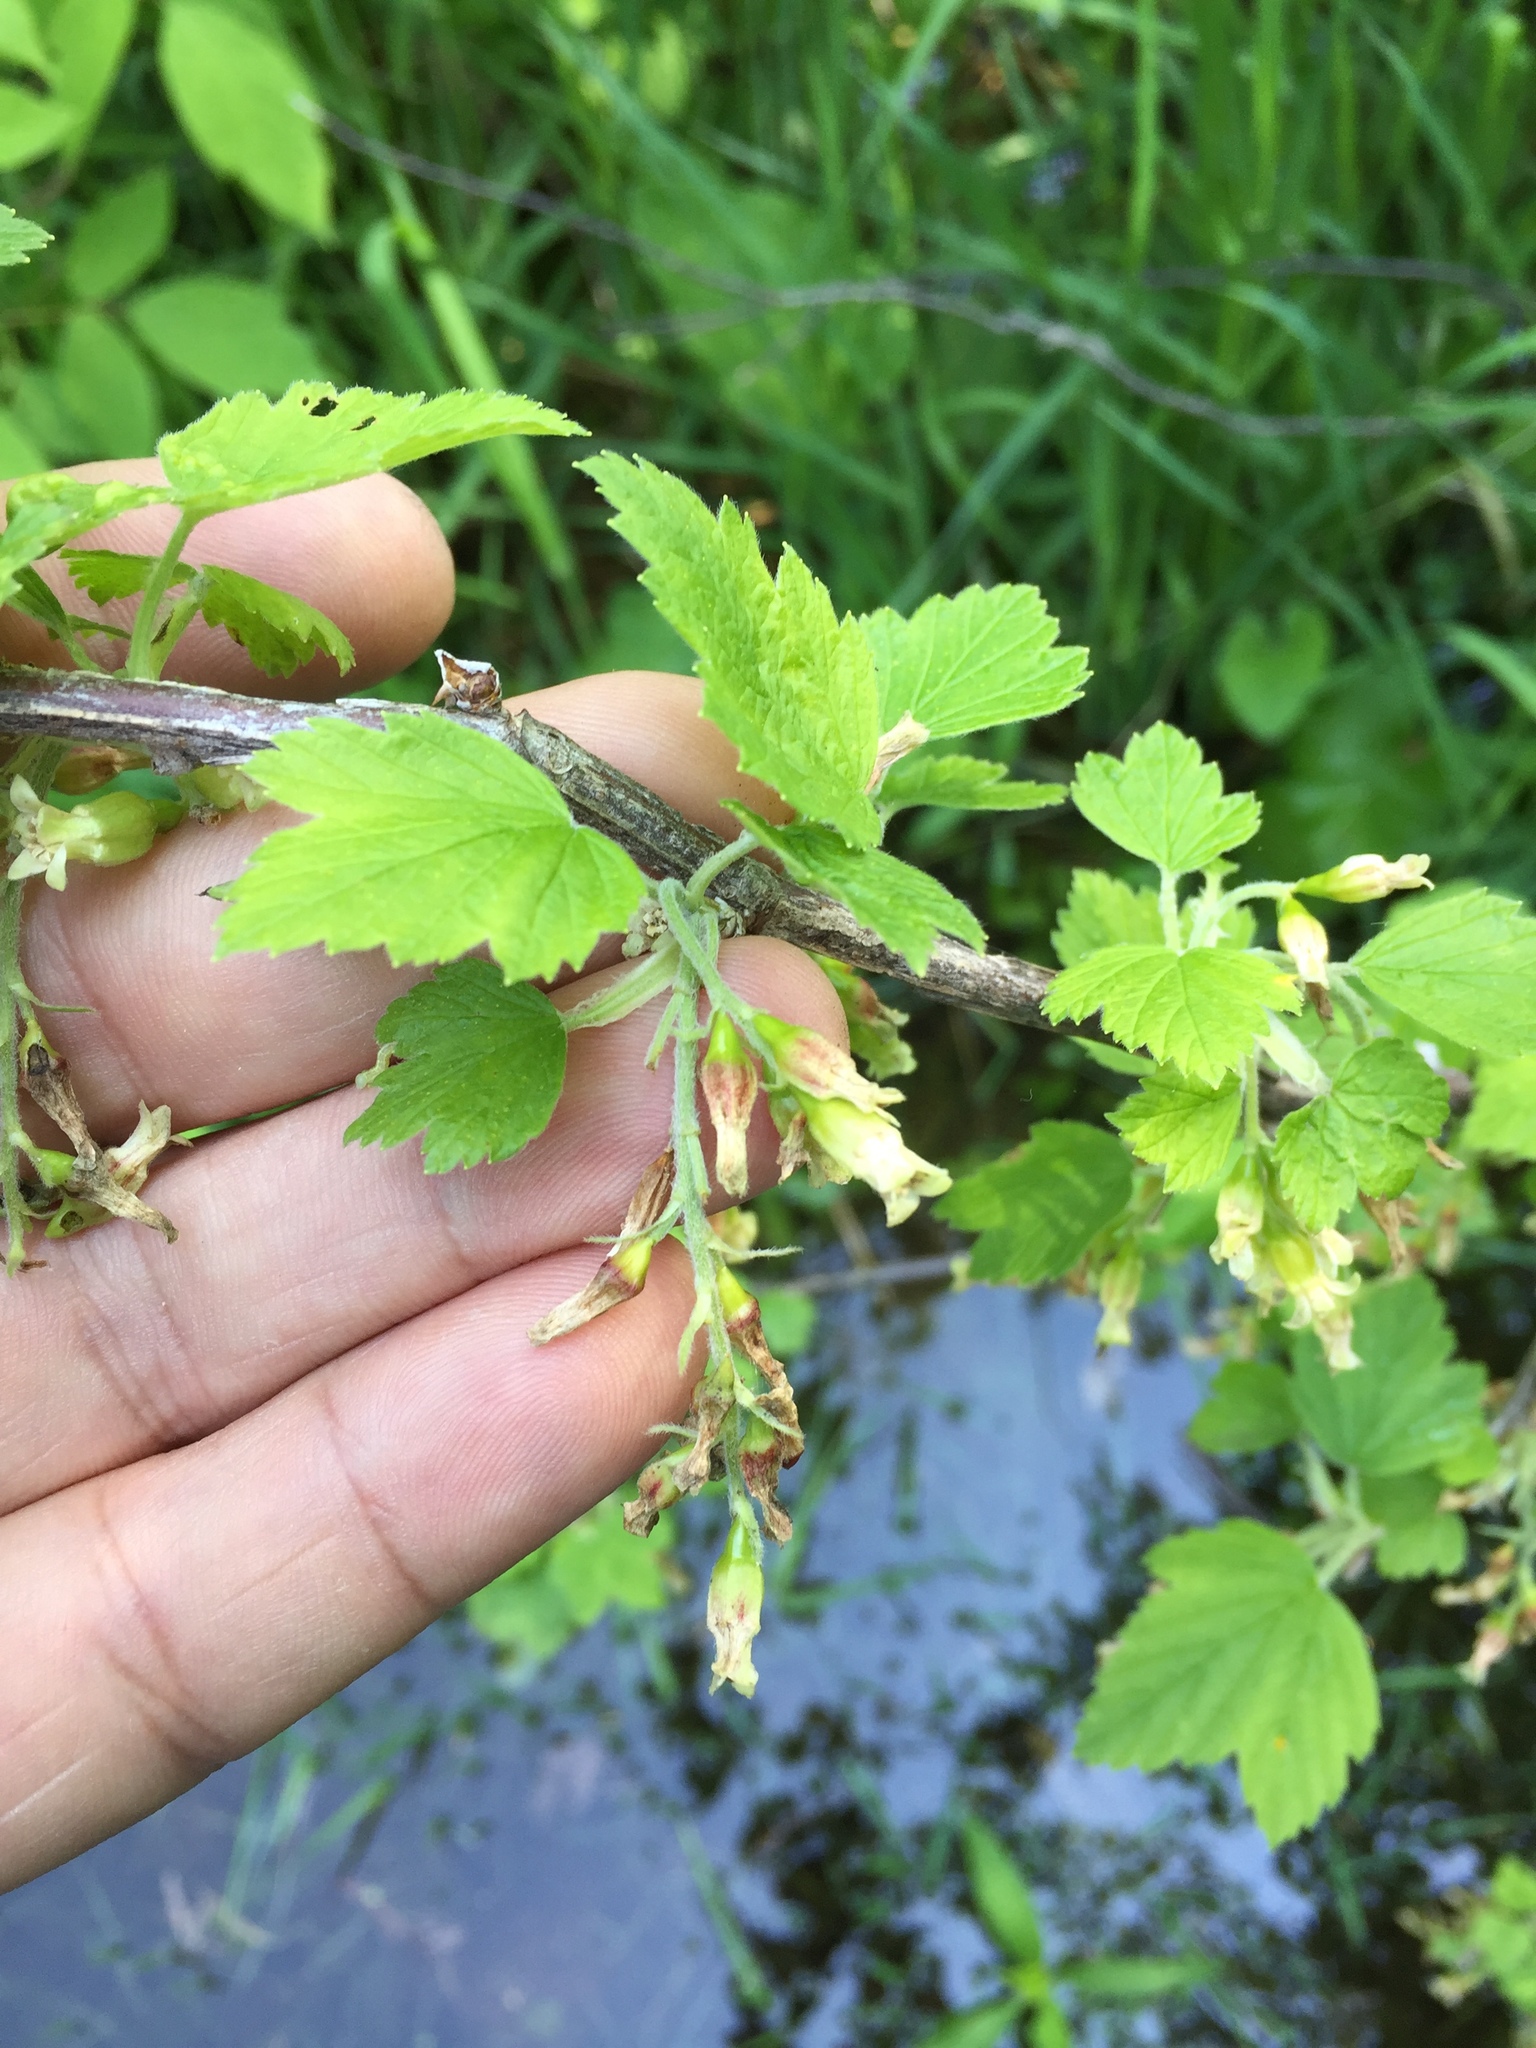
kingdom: Plantae
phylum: Tracheophyta
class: Magnoliopsida
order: Saxifragales
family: Grossulariaceae
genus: Ribes
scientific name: Ribes americanum
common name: American black currant
